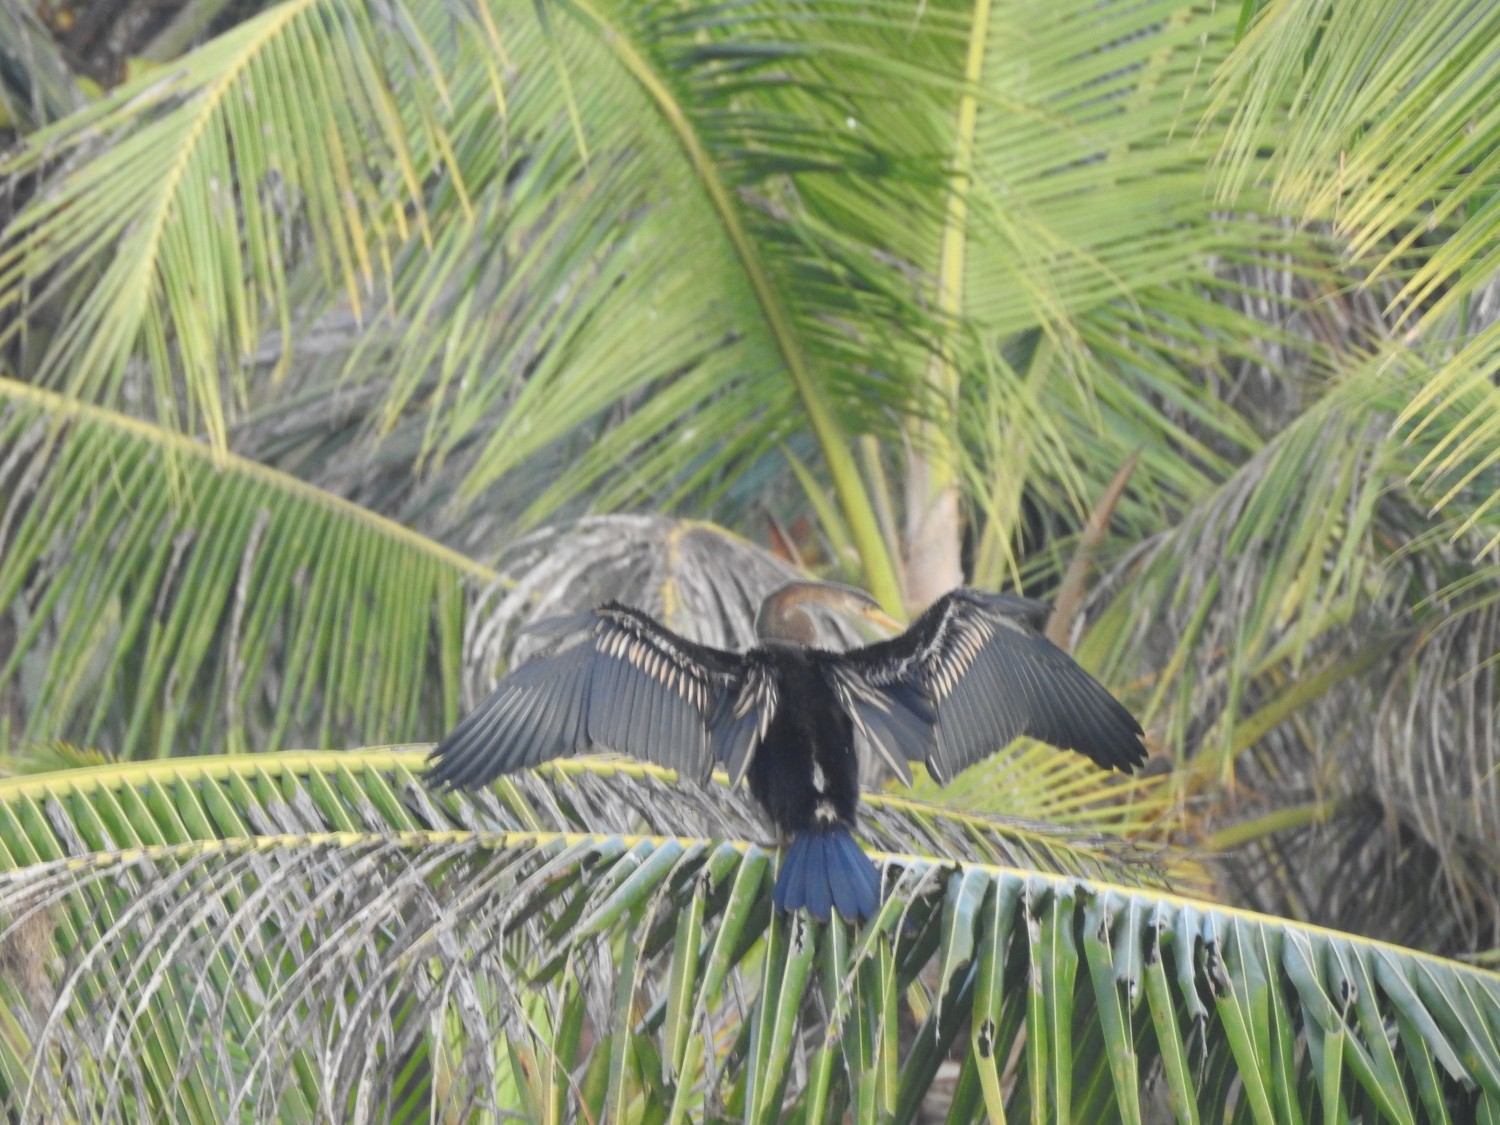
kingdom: Animalia
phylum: Chordata
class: Aves
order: Suliformes
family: Anhingidae
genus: Anhinga
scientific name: Anhinga melanogaster
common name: Oriental darter
